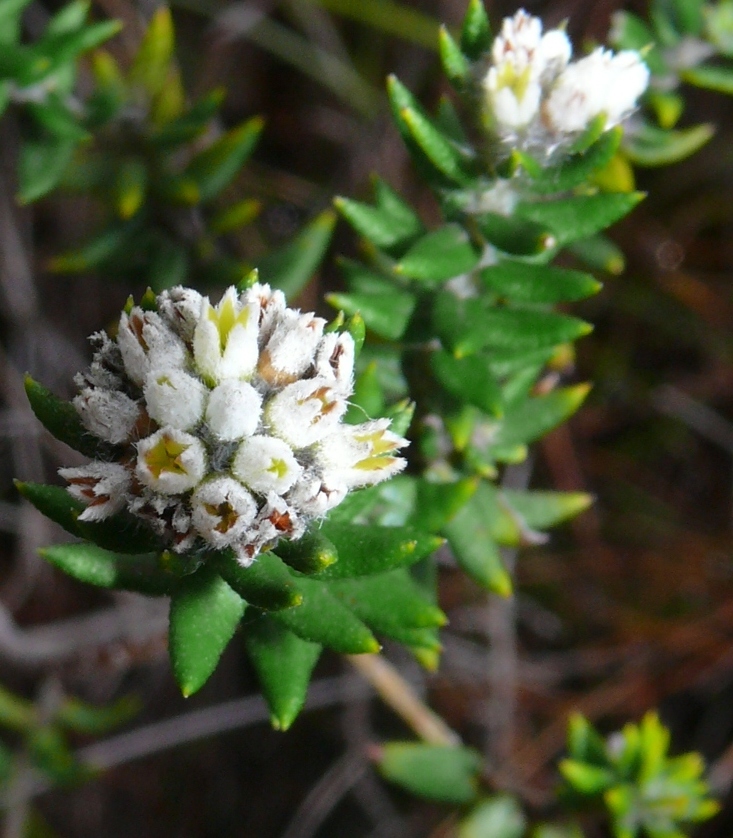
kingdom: Plantae
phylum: Tracheophyta
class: Magnoliopsida
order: Rosales
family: Rhamnaceae
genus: Phylica
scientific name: Phylica buxifolia
